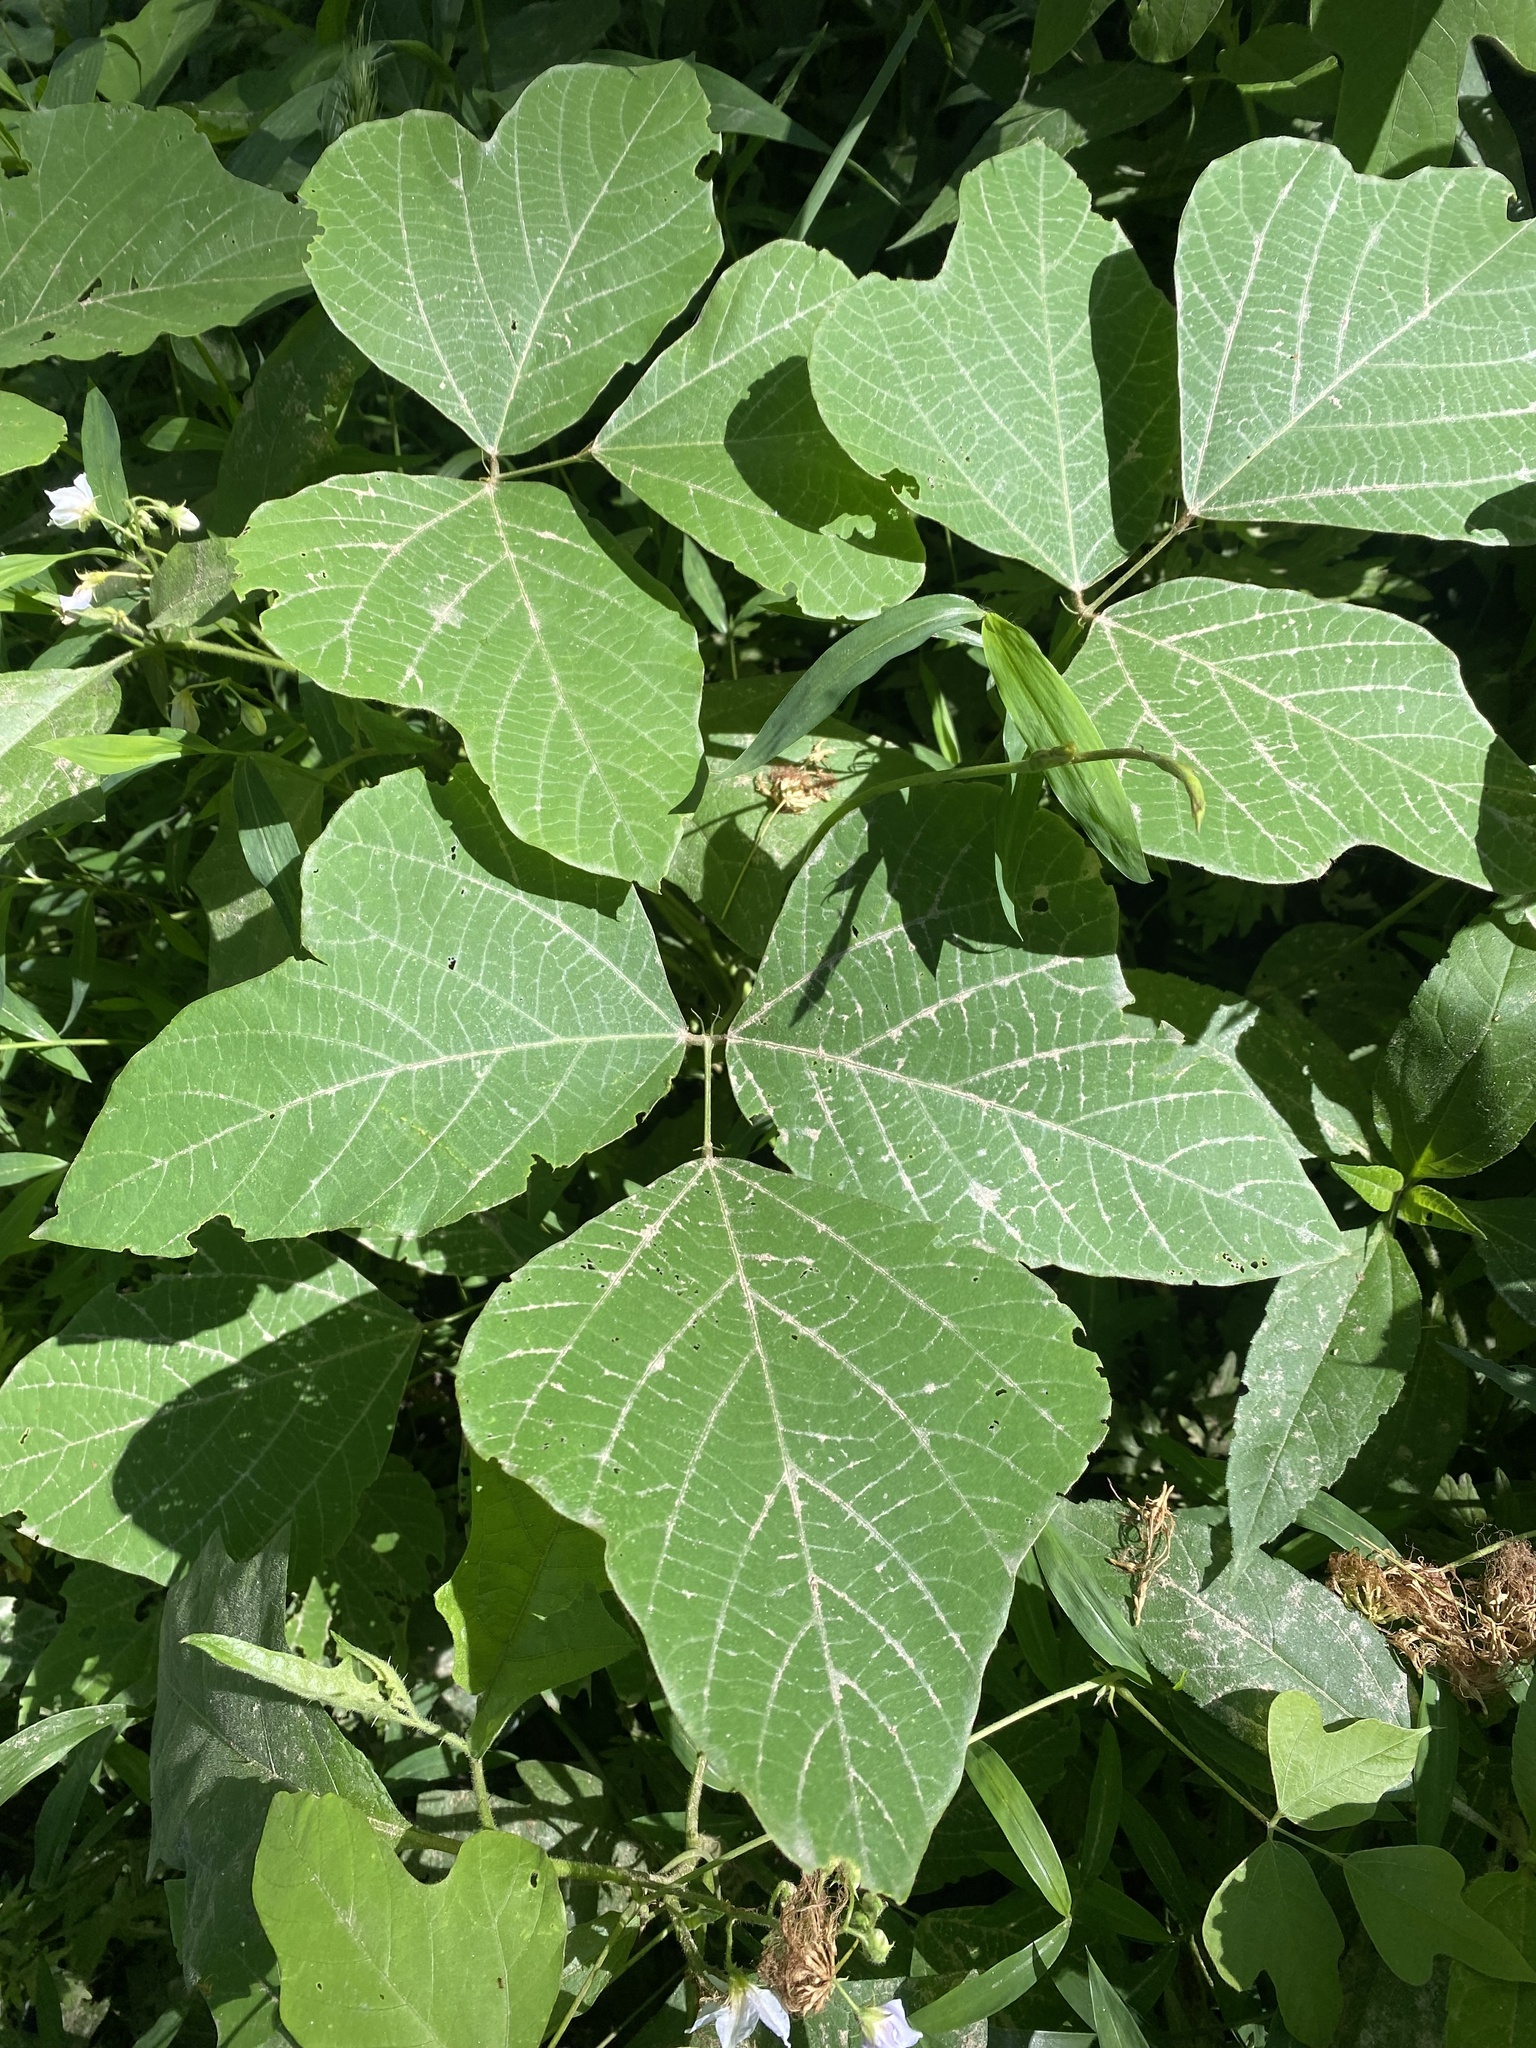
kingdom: Plantae
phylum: Tracheophyta
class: Magnoliopsida
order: Fabales
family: Fabaceae
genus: Pueraria
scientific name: Pueraria montana
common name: Kudzu
